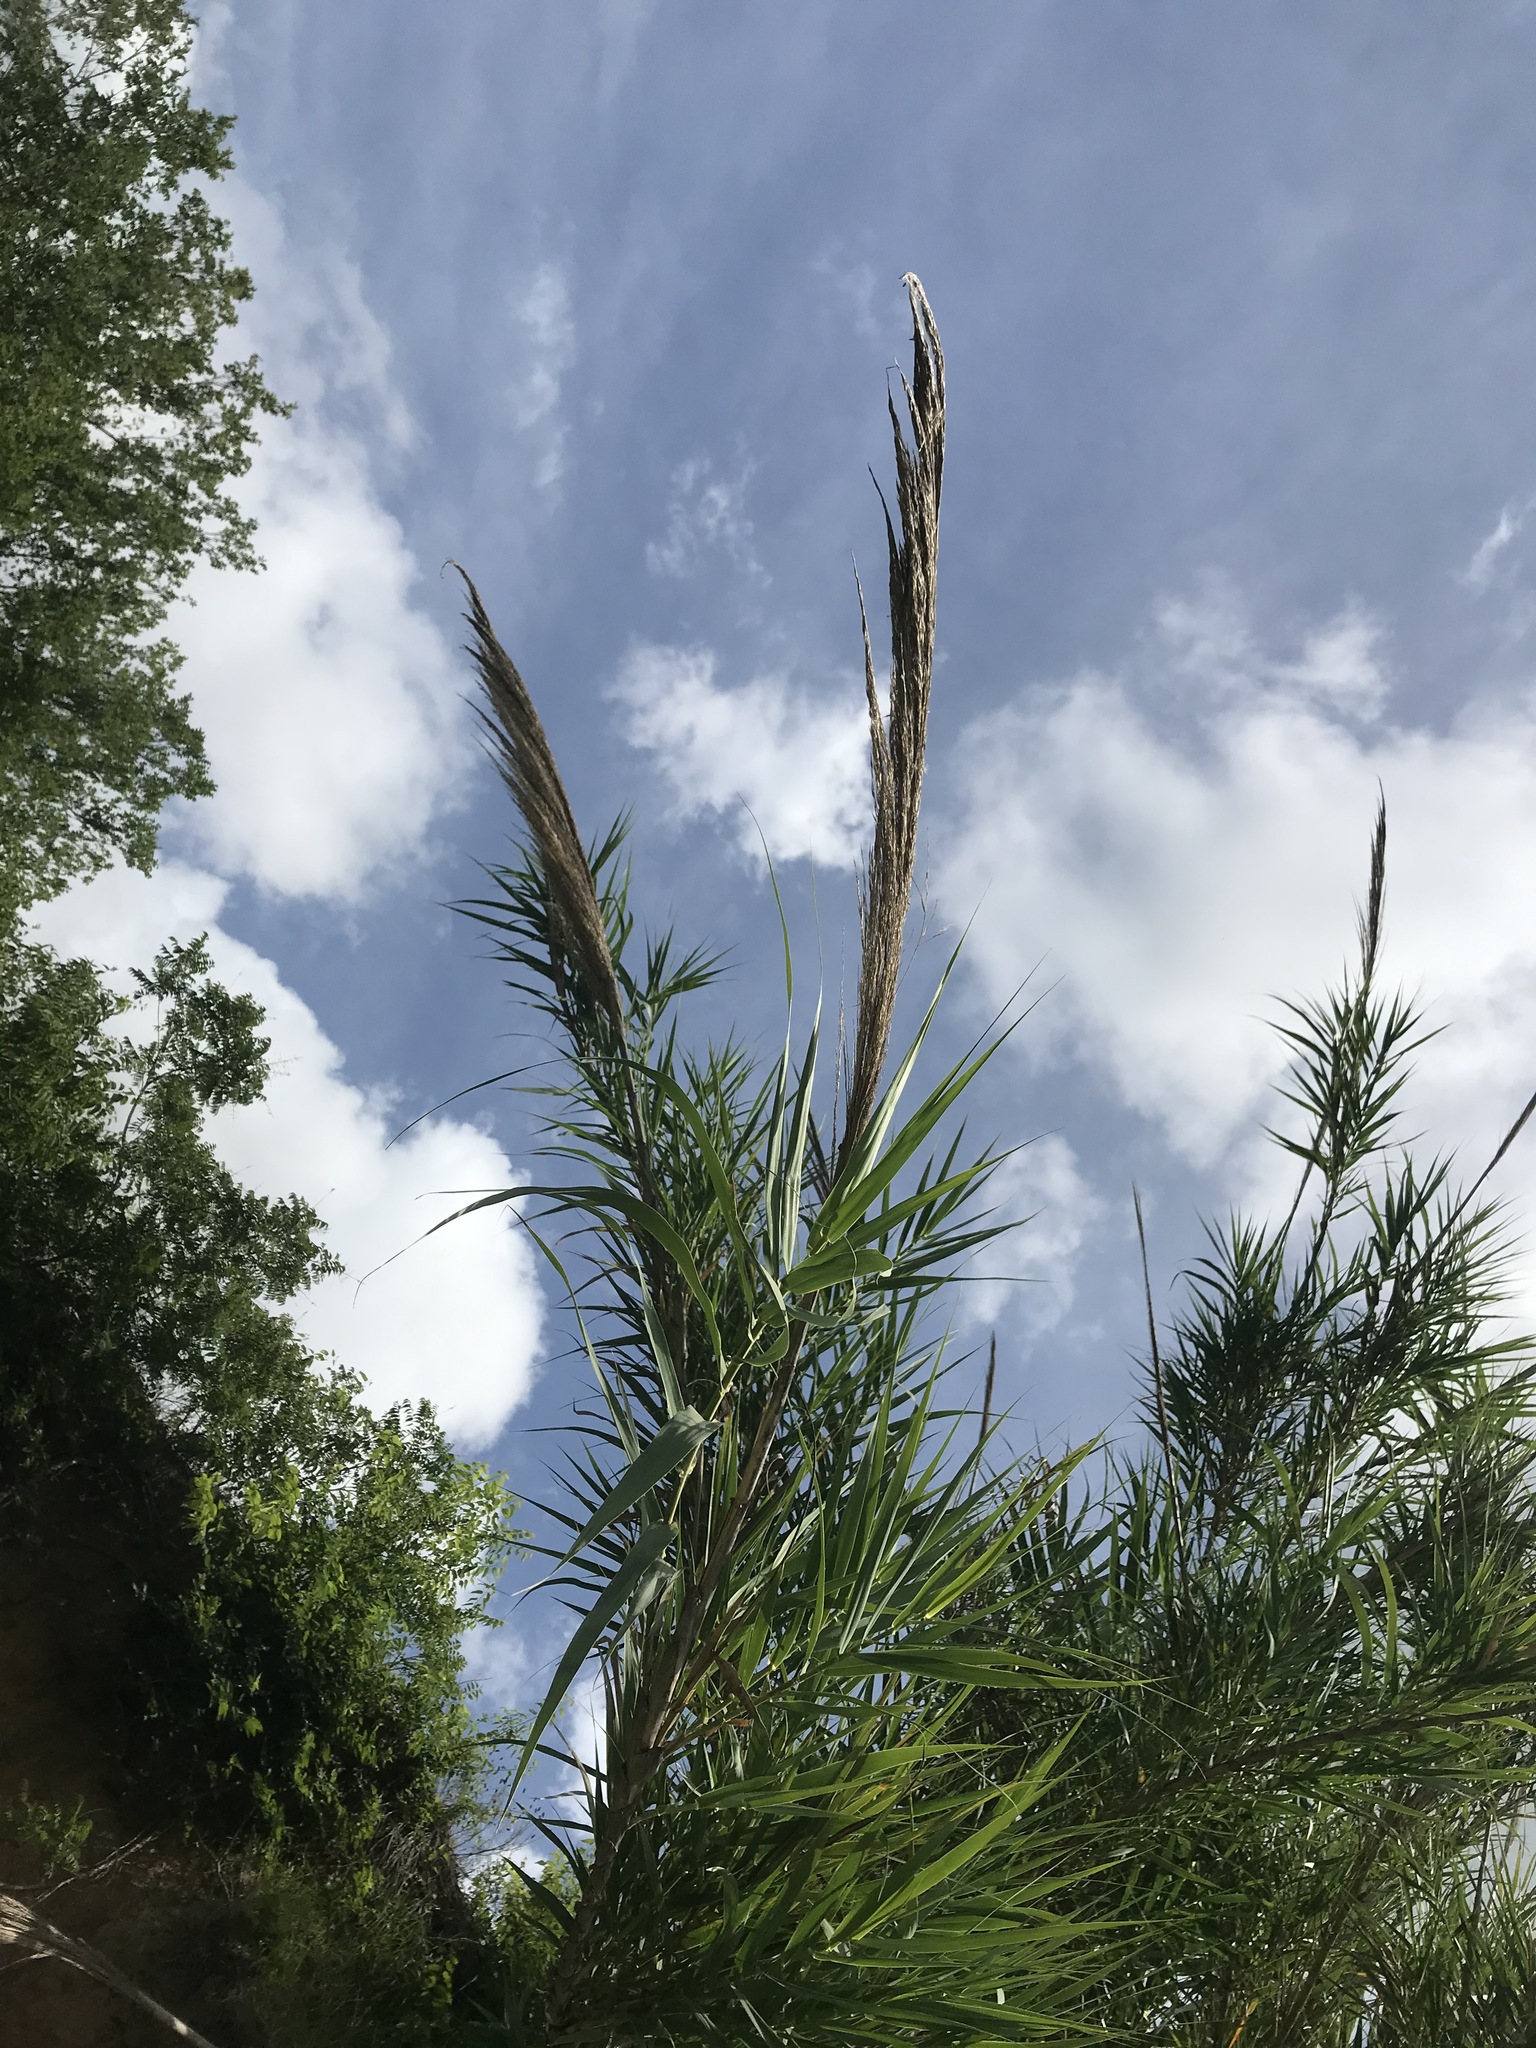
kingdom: Plantae
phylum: Tracheophyta
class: Liliopsida
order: Poales
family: Poaceae
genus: Arundo
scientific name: Arundo donax
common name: Giant reed
